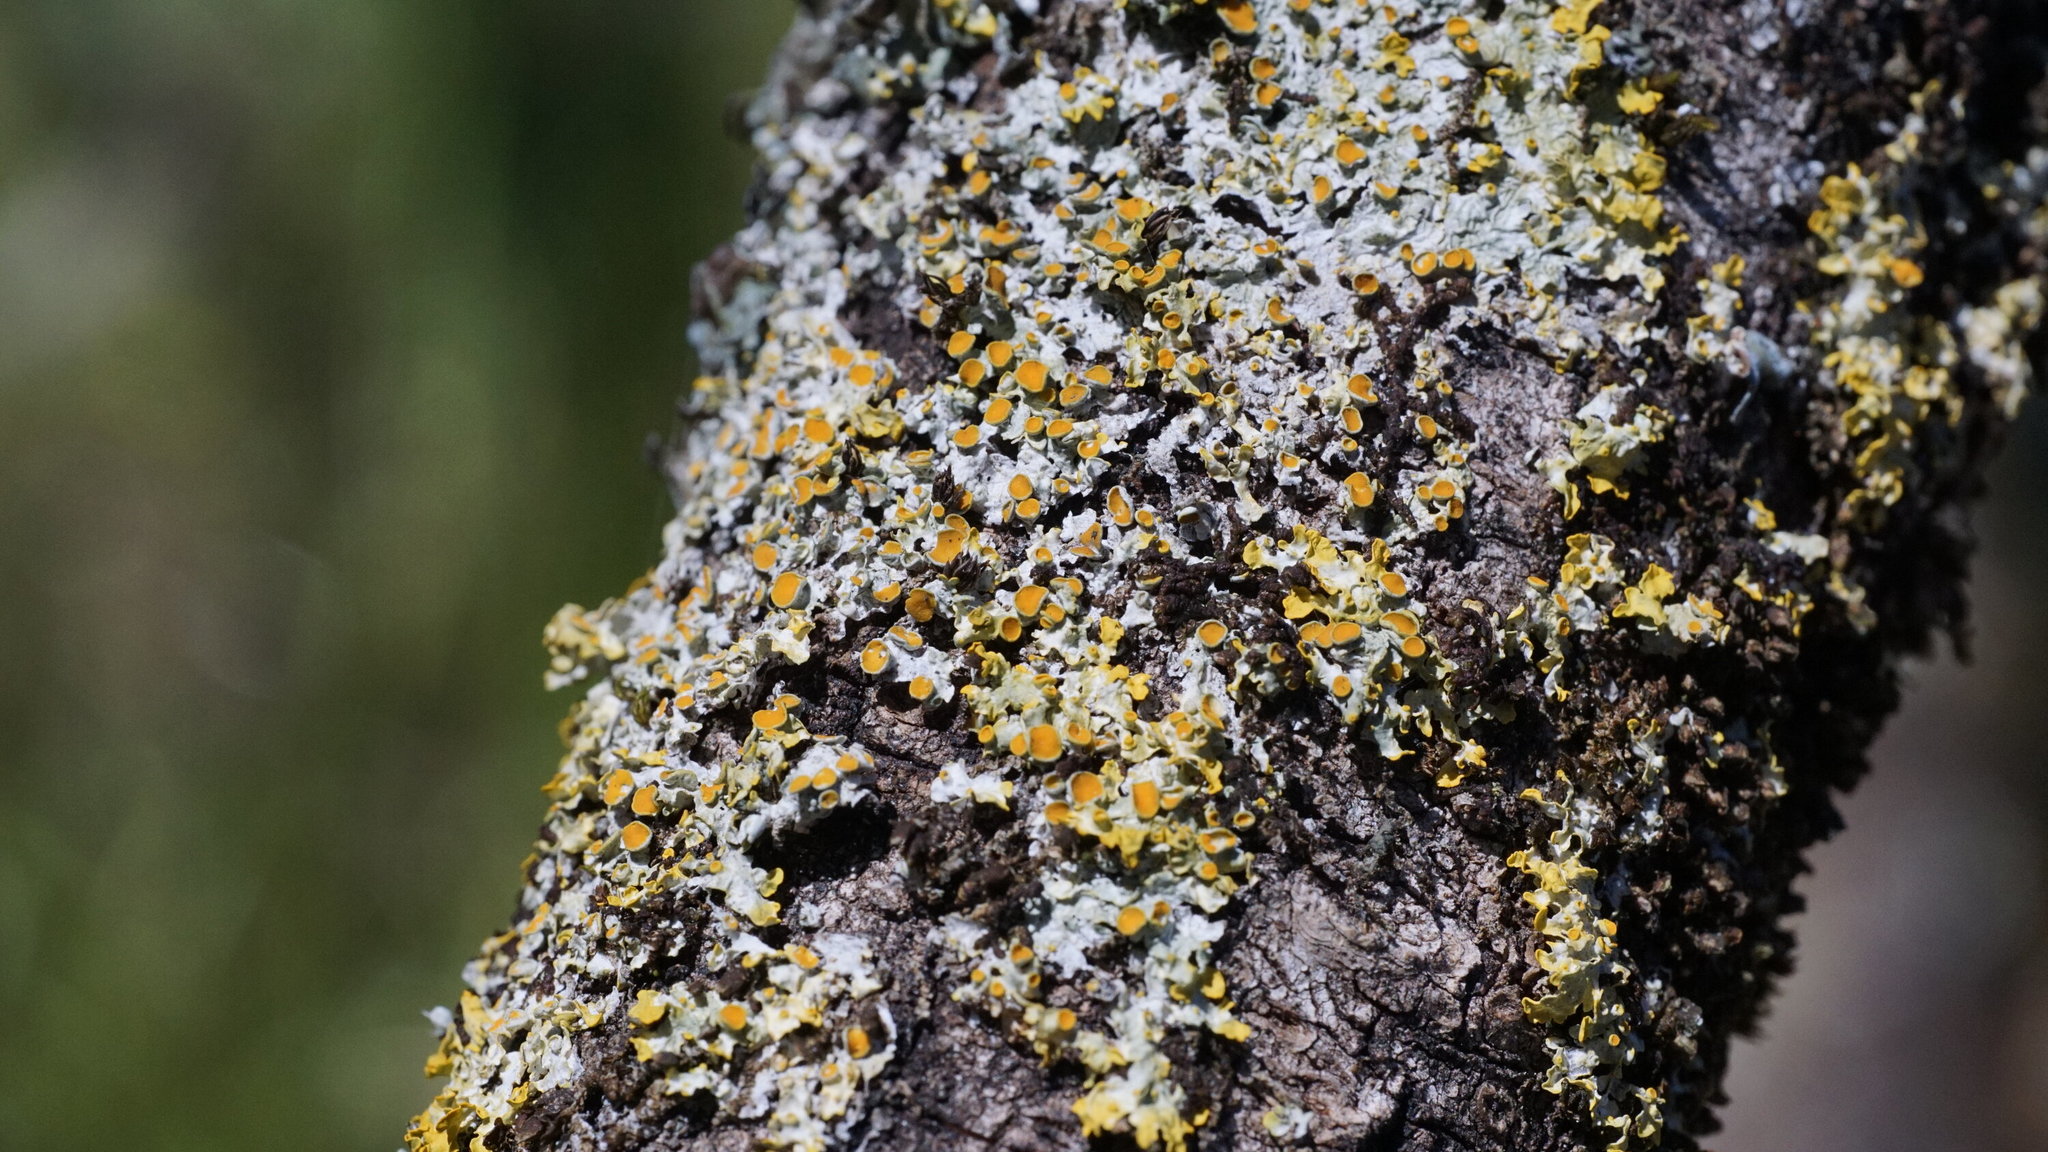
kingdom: Fungi
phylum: Ascomycota
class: Lecanoromycetes
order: Teloschistales
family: Teloschistaceae
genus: Xanthoria
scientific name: Xanthoria parietina
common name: Common orange lichen
